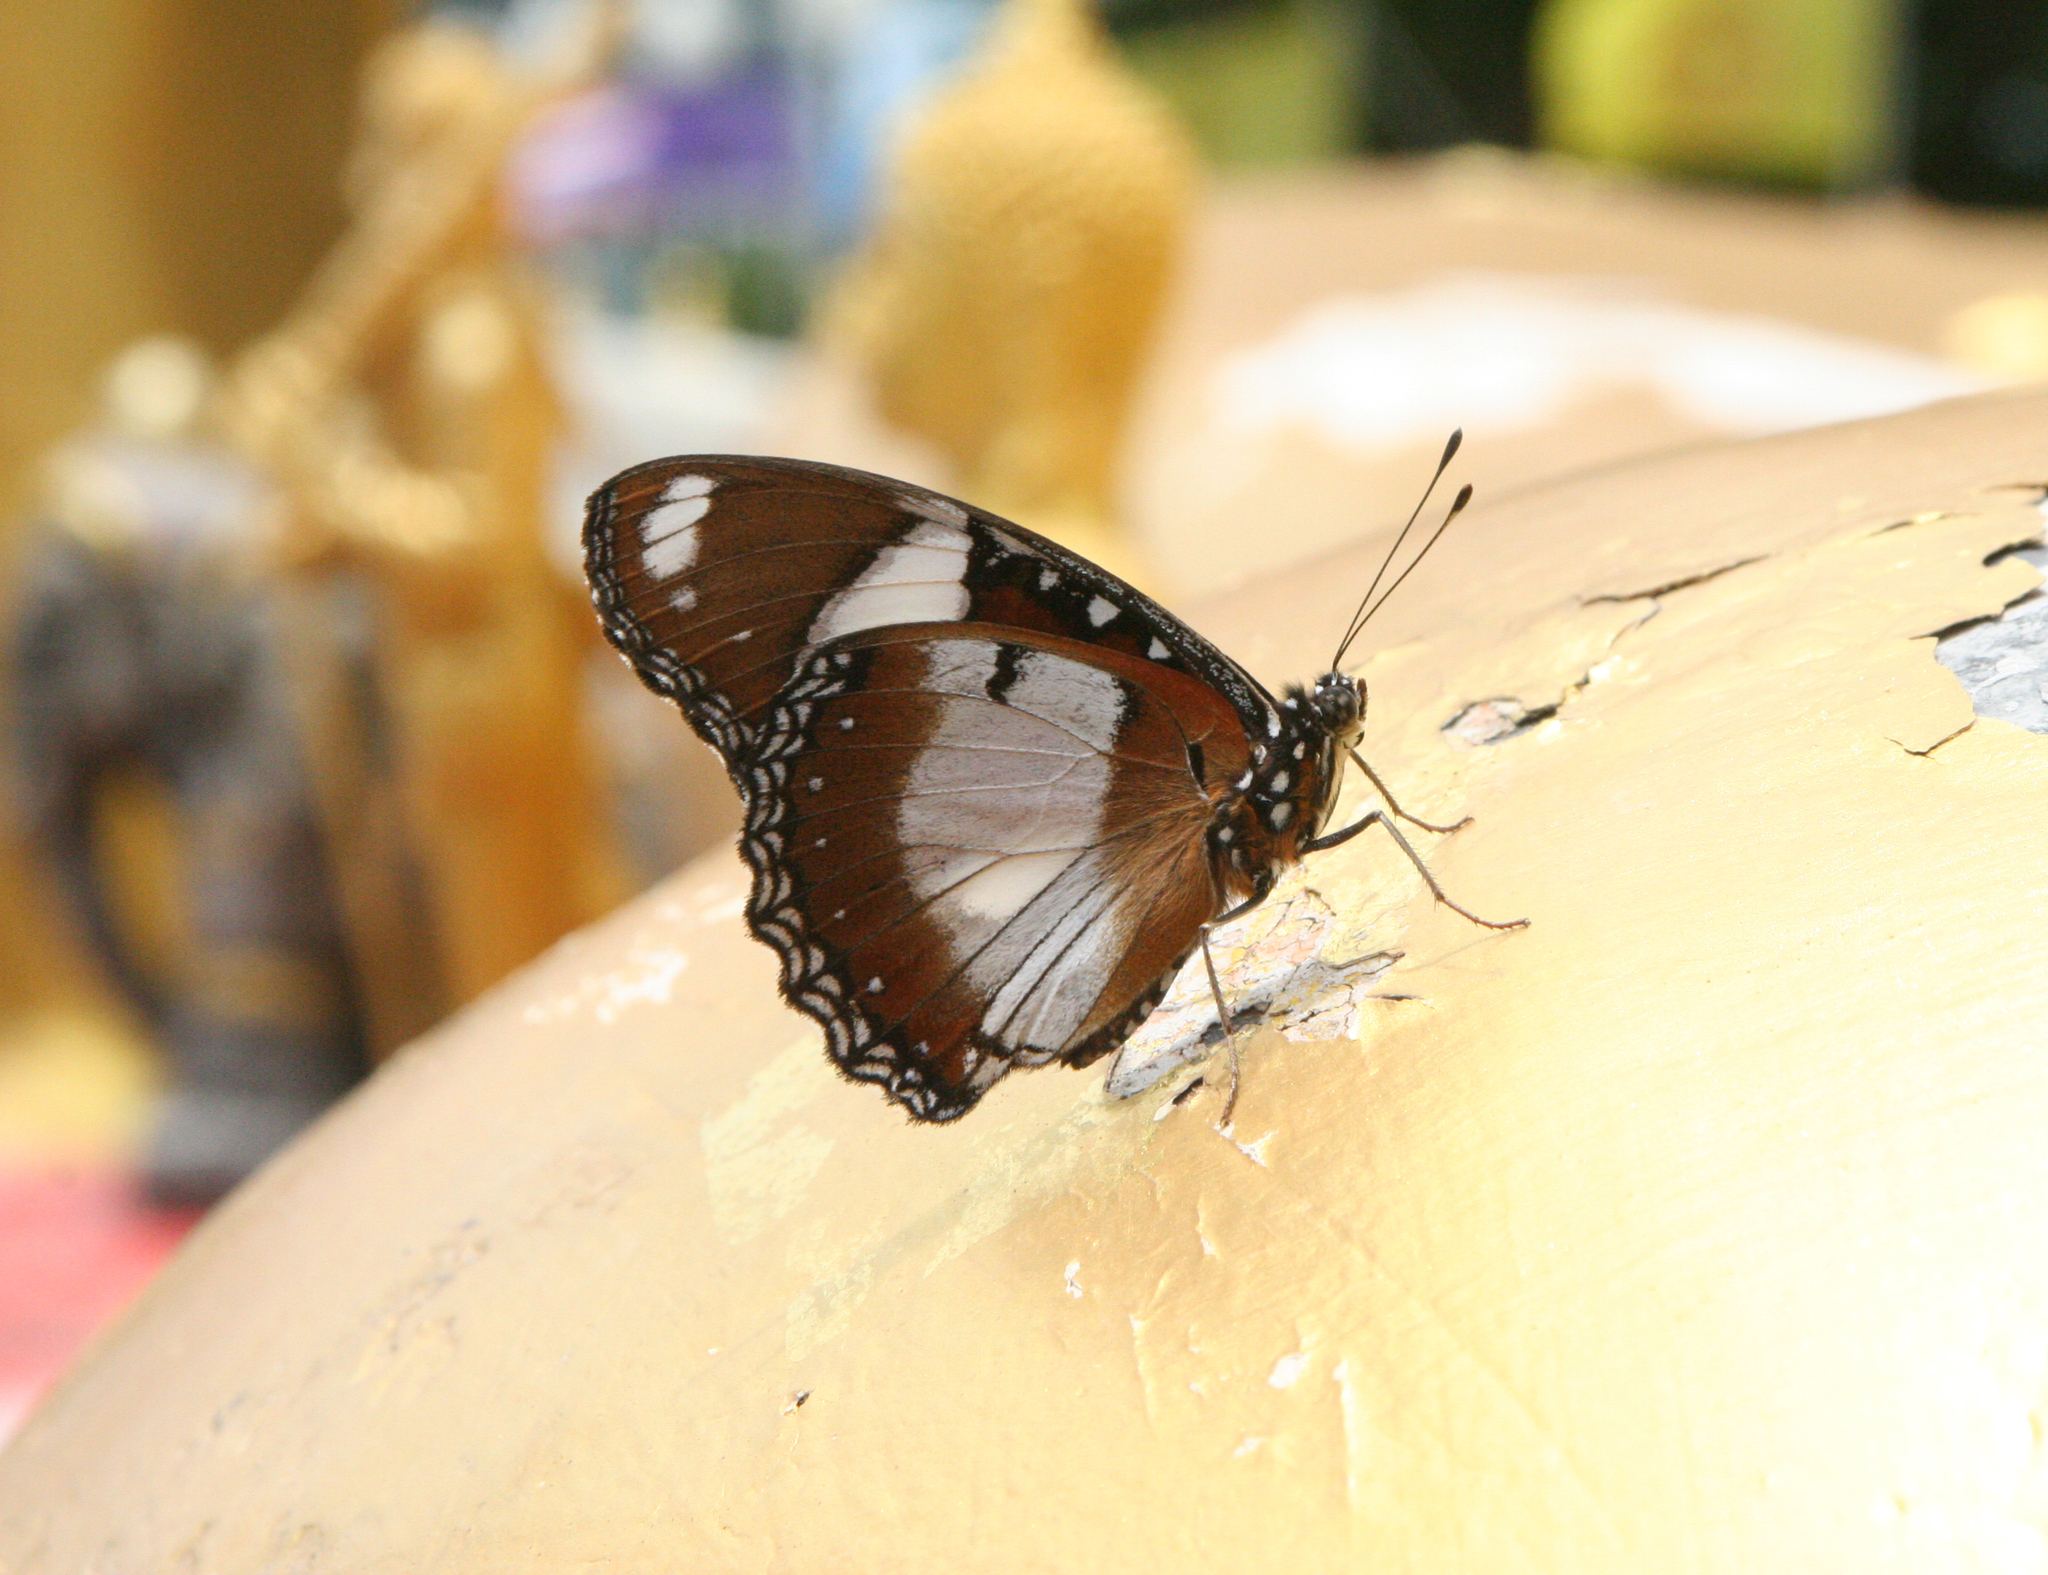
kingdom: Animalia
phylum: Arthropoda
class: Insecta
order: Lepidoptera
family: Nymphalidae
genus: Hypolimnas
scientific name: Hypolimnas misippus
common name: False plain tiger
